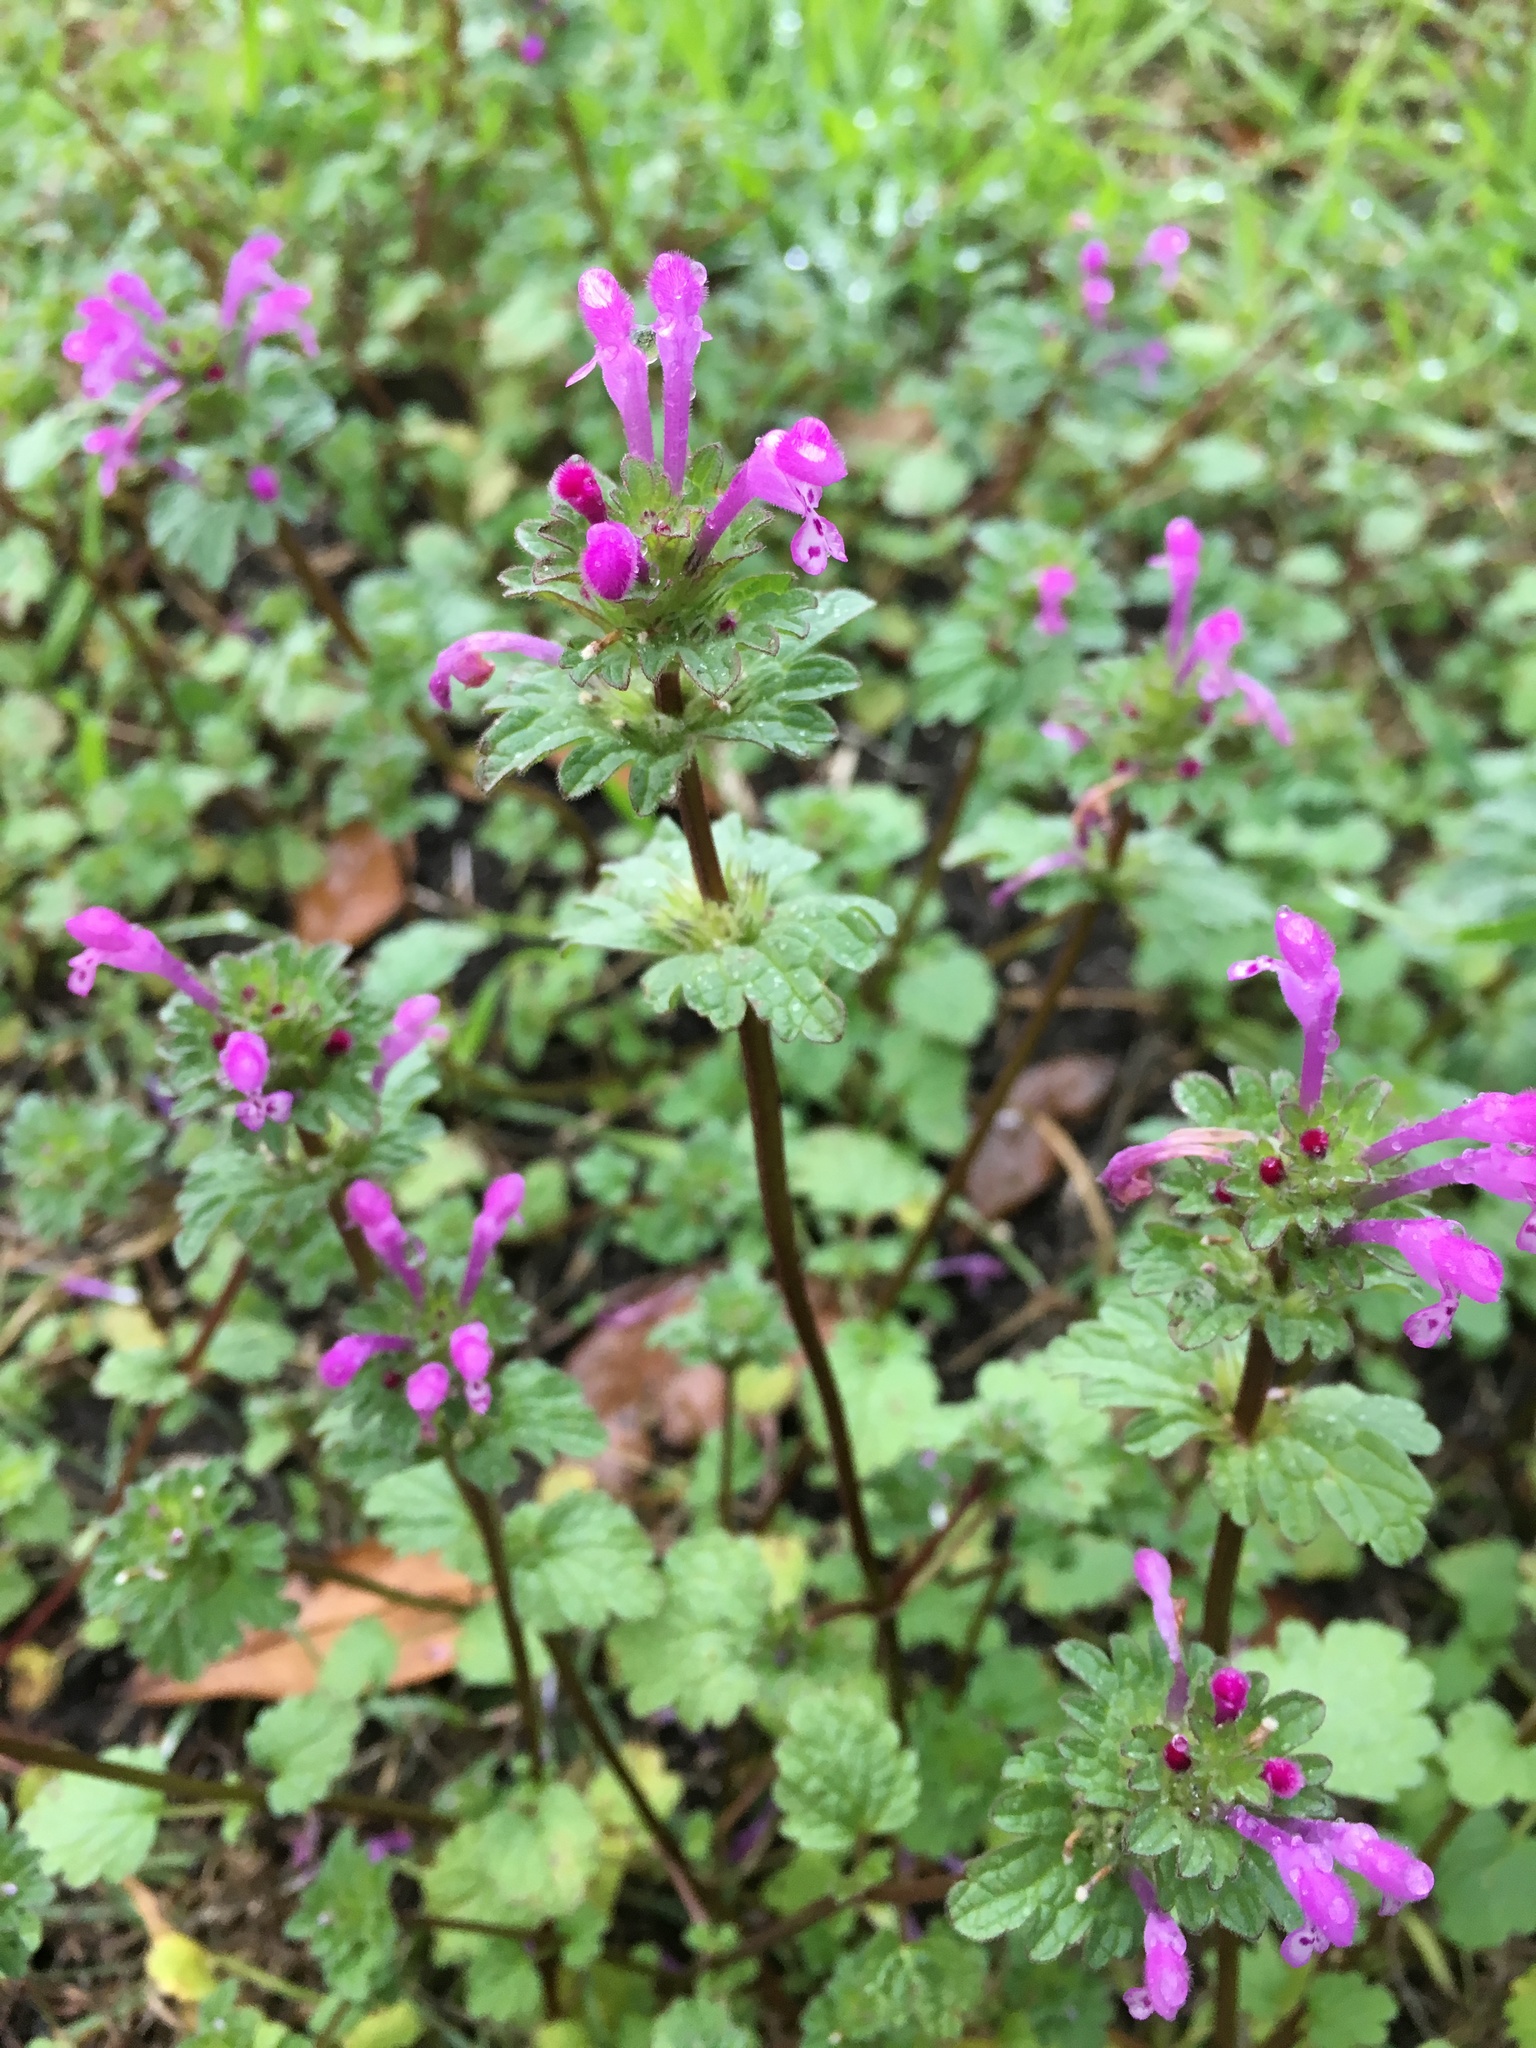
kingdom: Plantae
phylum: Tracheophyta
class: Magnoliopsida
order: Lamiales
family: Lamiaceae
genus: Lamium
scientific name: Lamium amplexicaule
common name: Henbit dead-nettle
